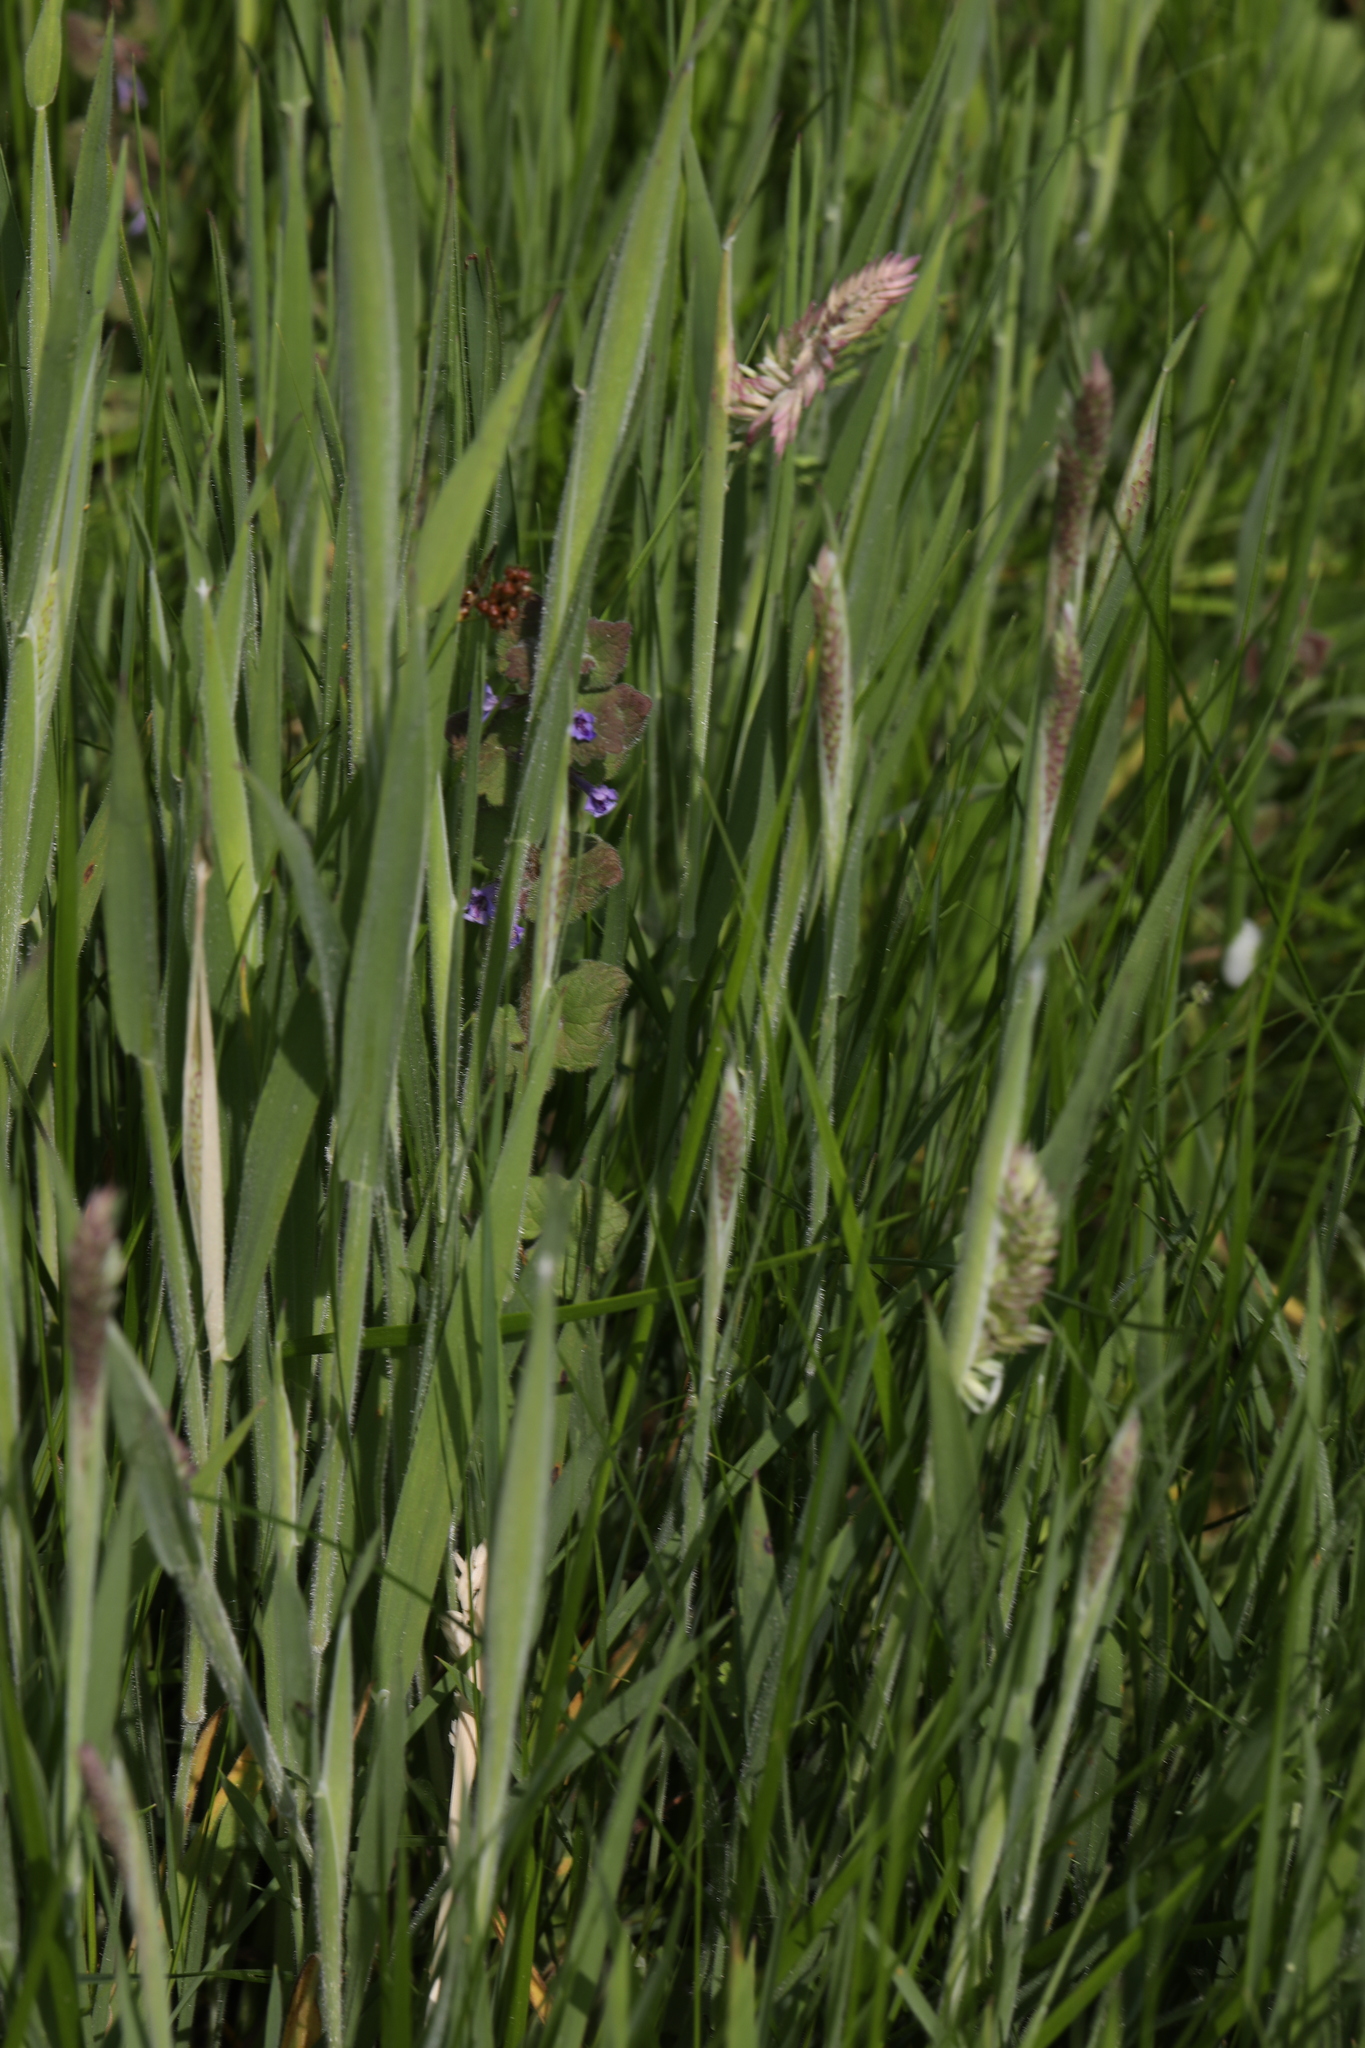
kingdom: Plantae
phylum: Tracheophyta
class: Liliopsida
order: Poales
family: Poaceae
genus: Holcus
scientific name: Holcus lanatus
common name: Yorkshire-fog
